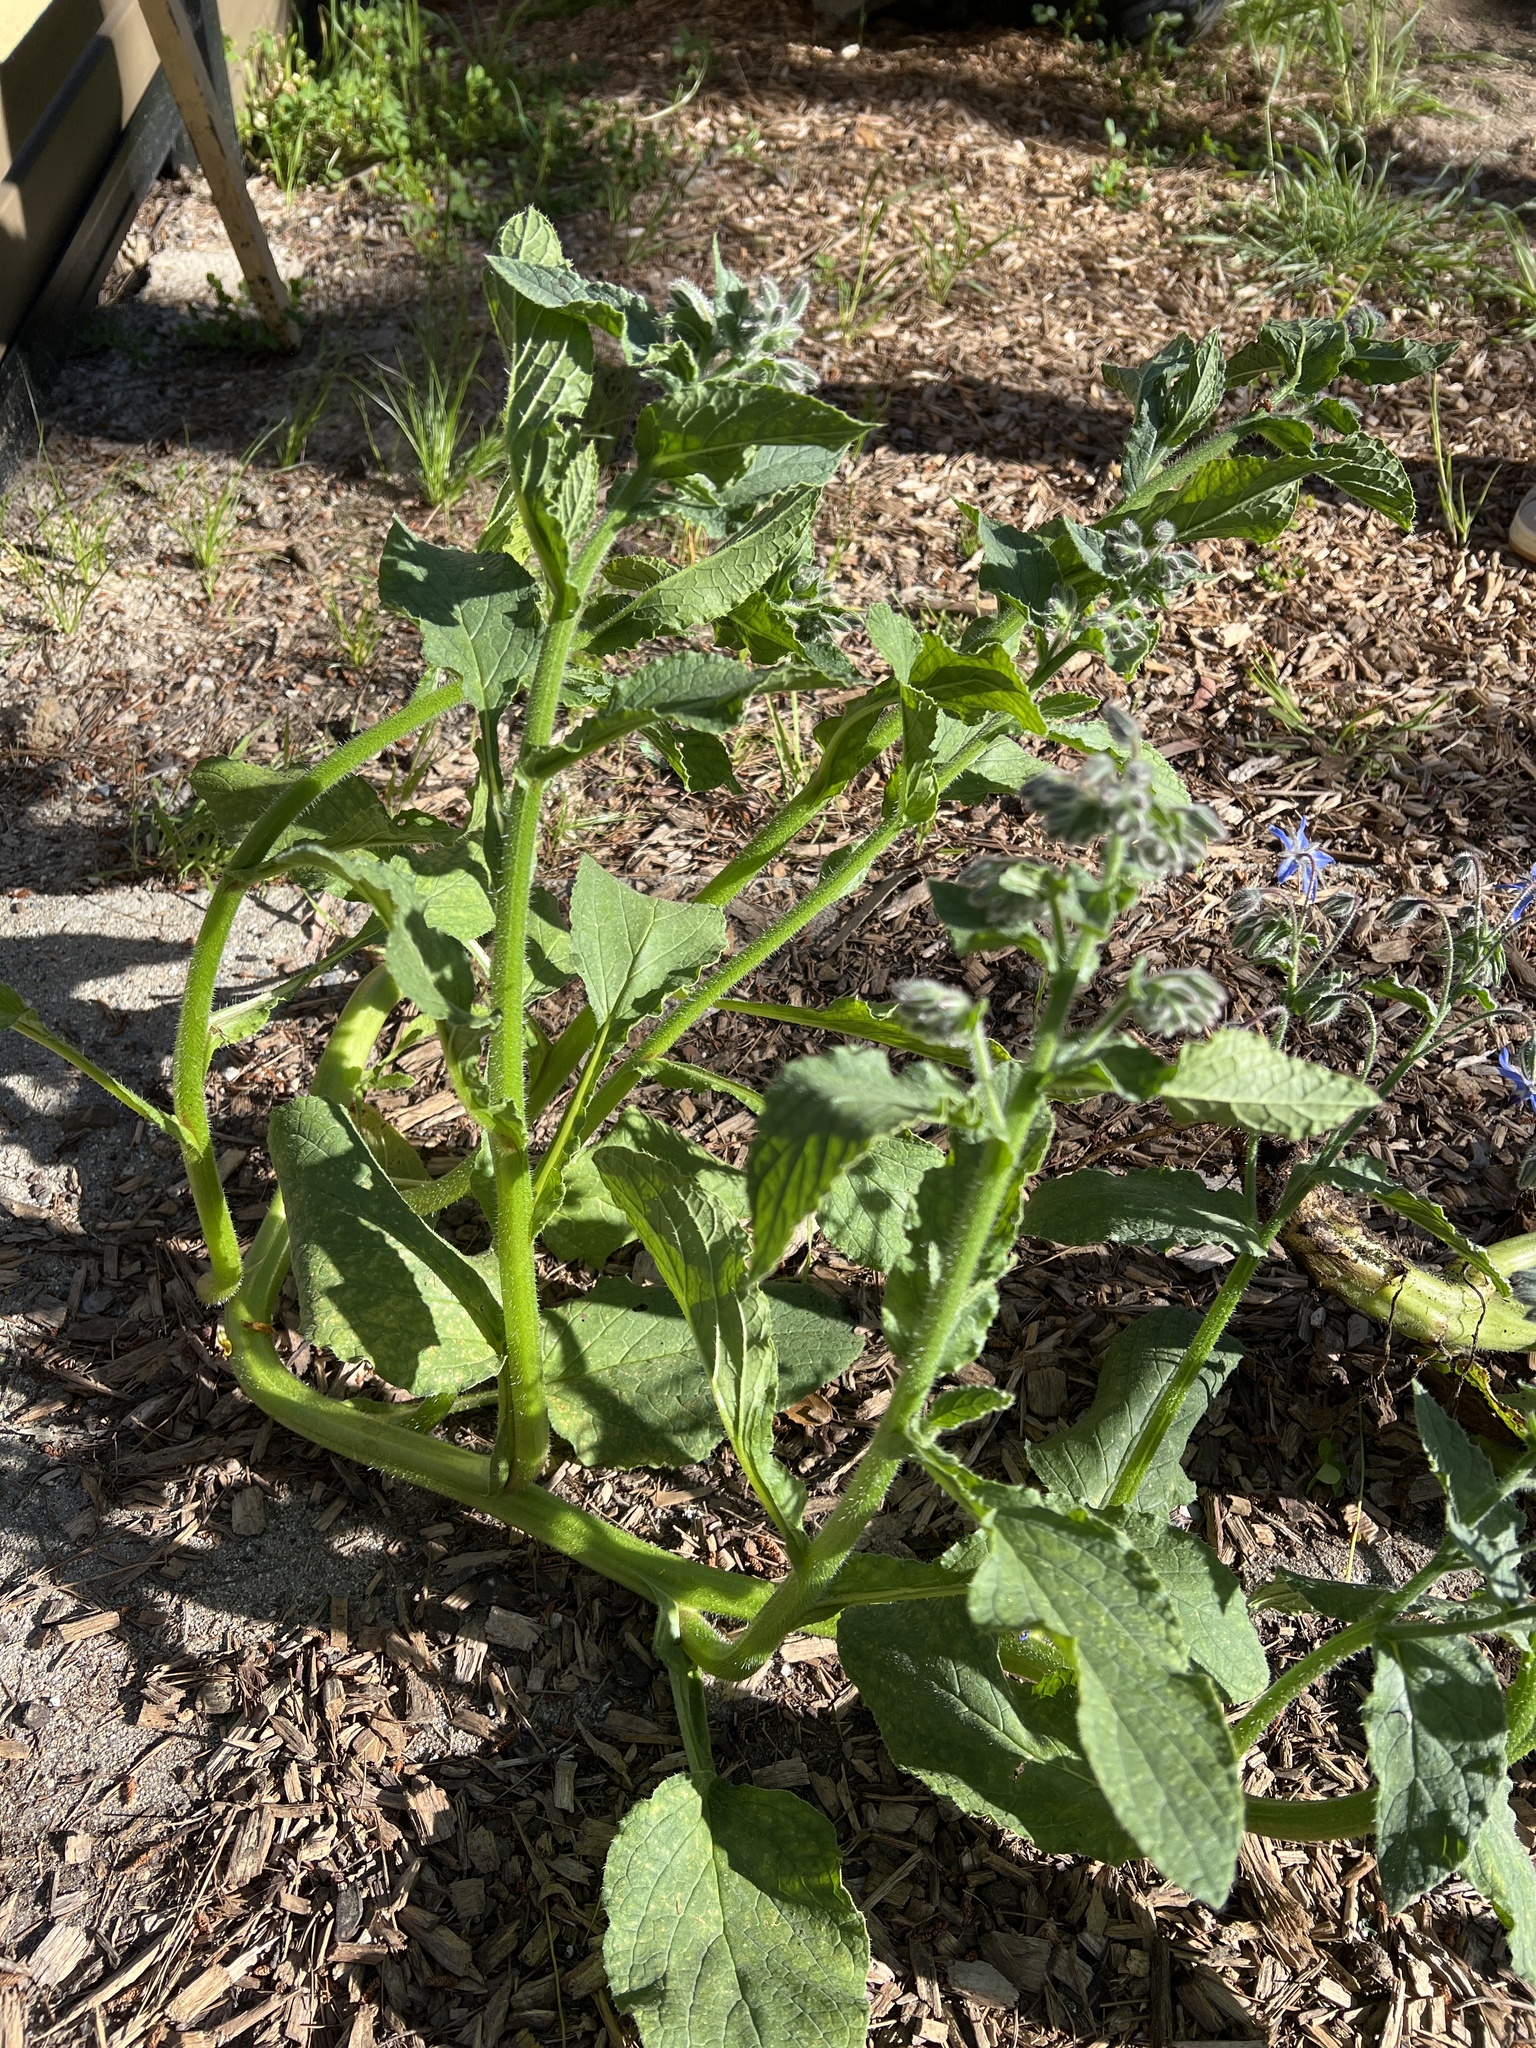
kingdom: Plantae
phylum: Tracheophyta
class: Magnoliopsida
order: Boraginales
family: Boraginaceae
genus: Borago
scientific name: Borago officinalis
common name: Borage
